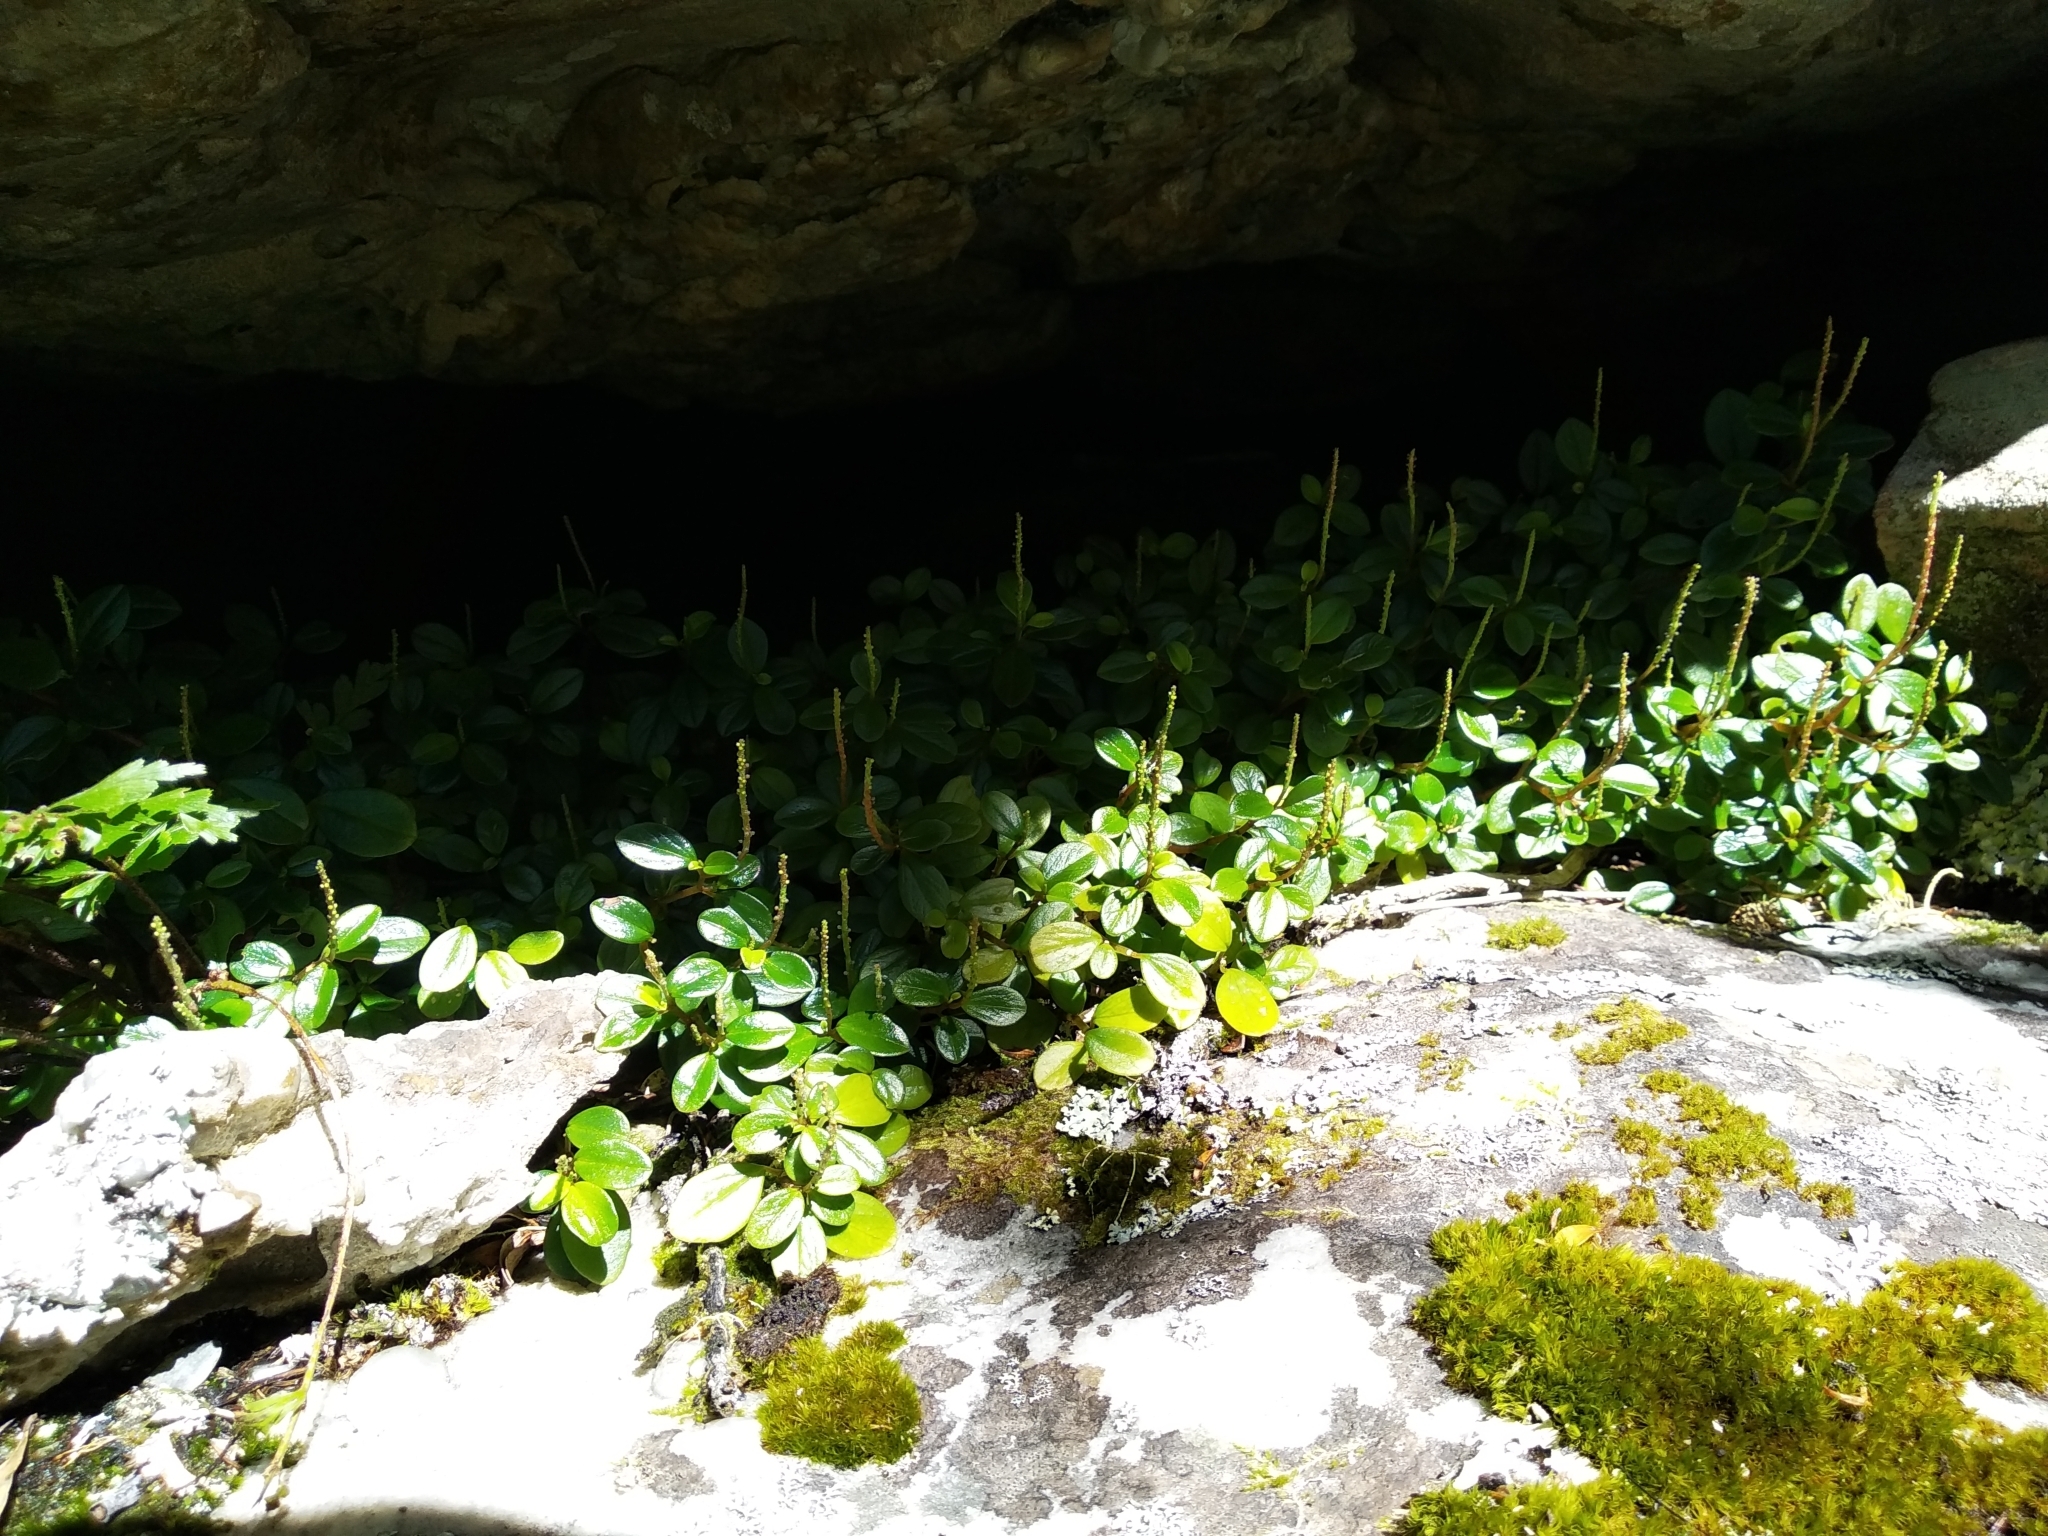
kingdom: Plantae
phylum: Tracheophyta
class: Magnoliopsida
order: Piperales
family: Piperaceae
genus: Peperomia
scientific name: Peperomia retusa
